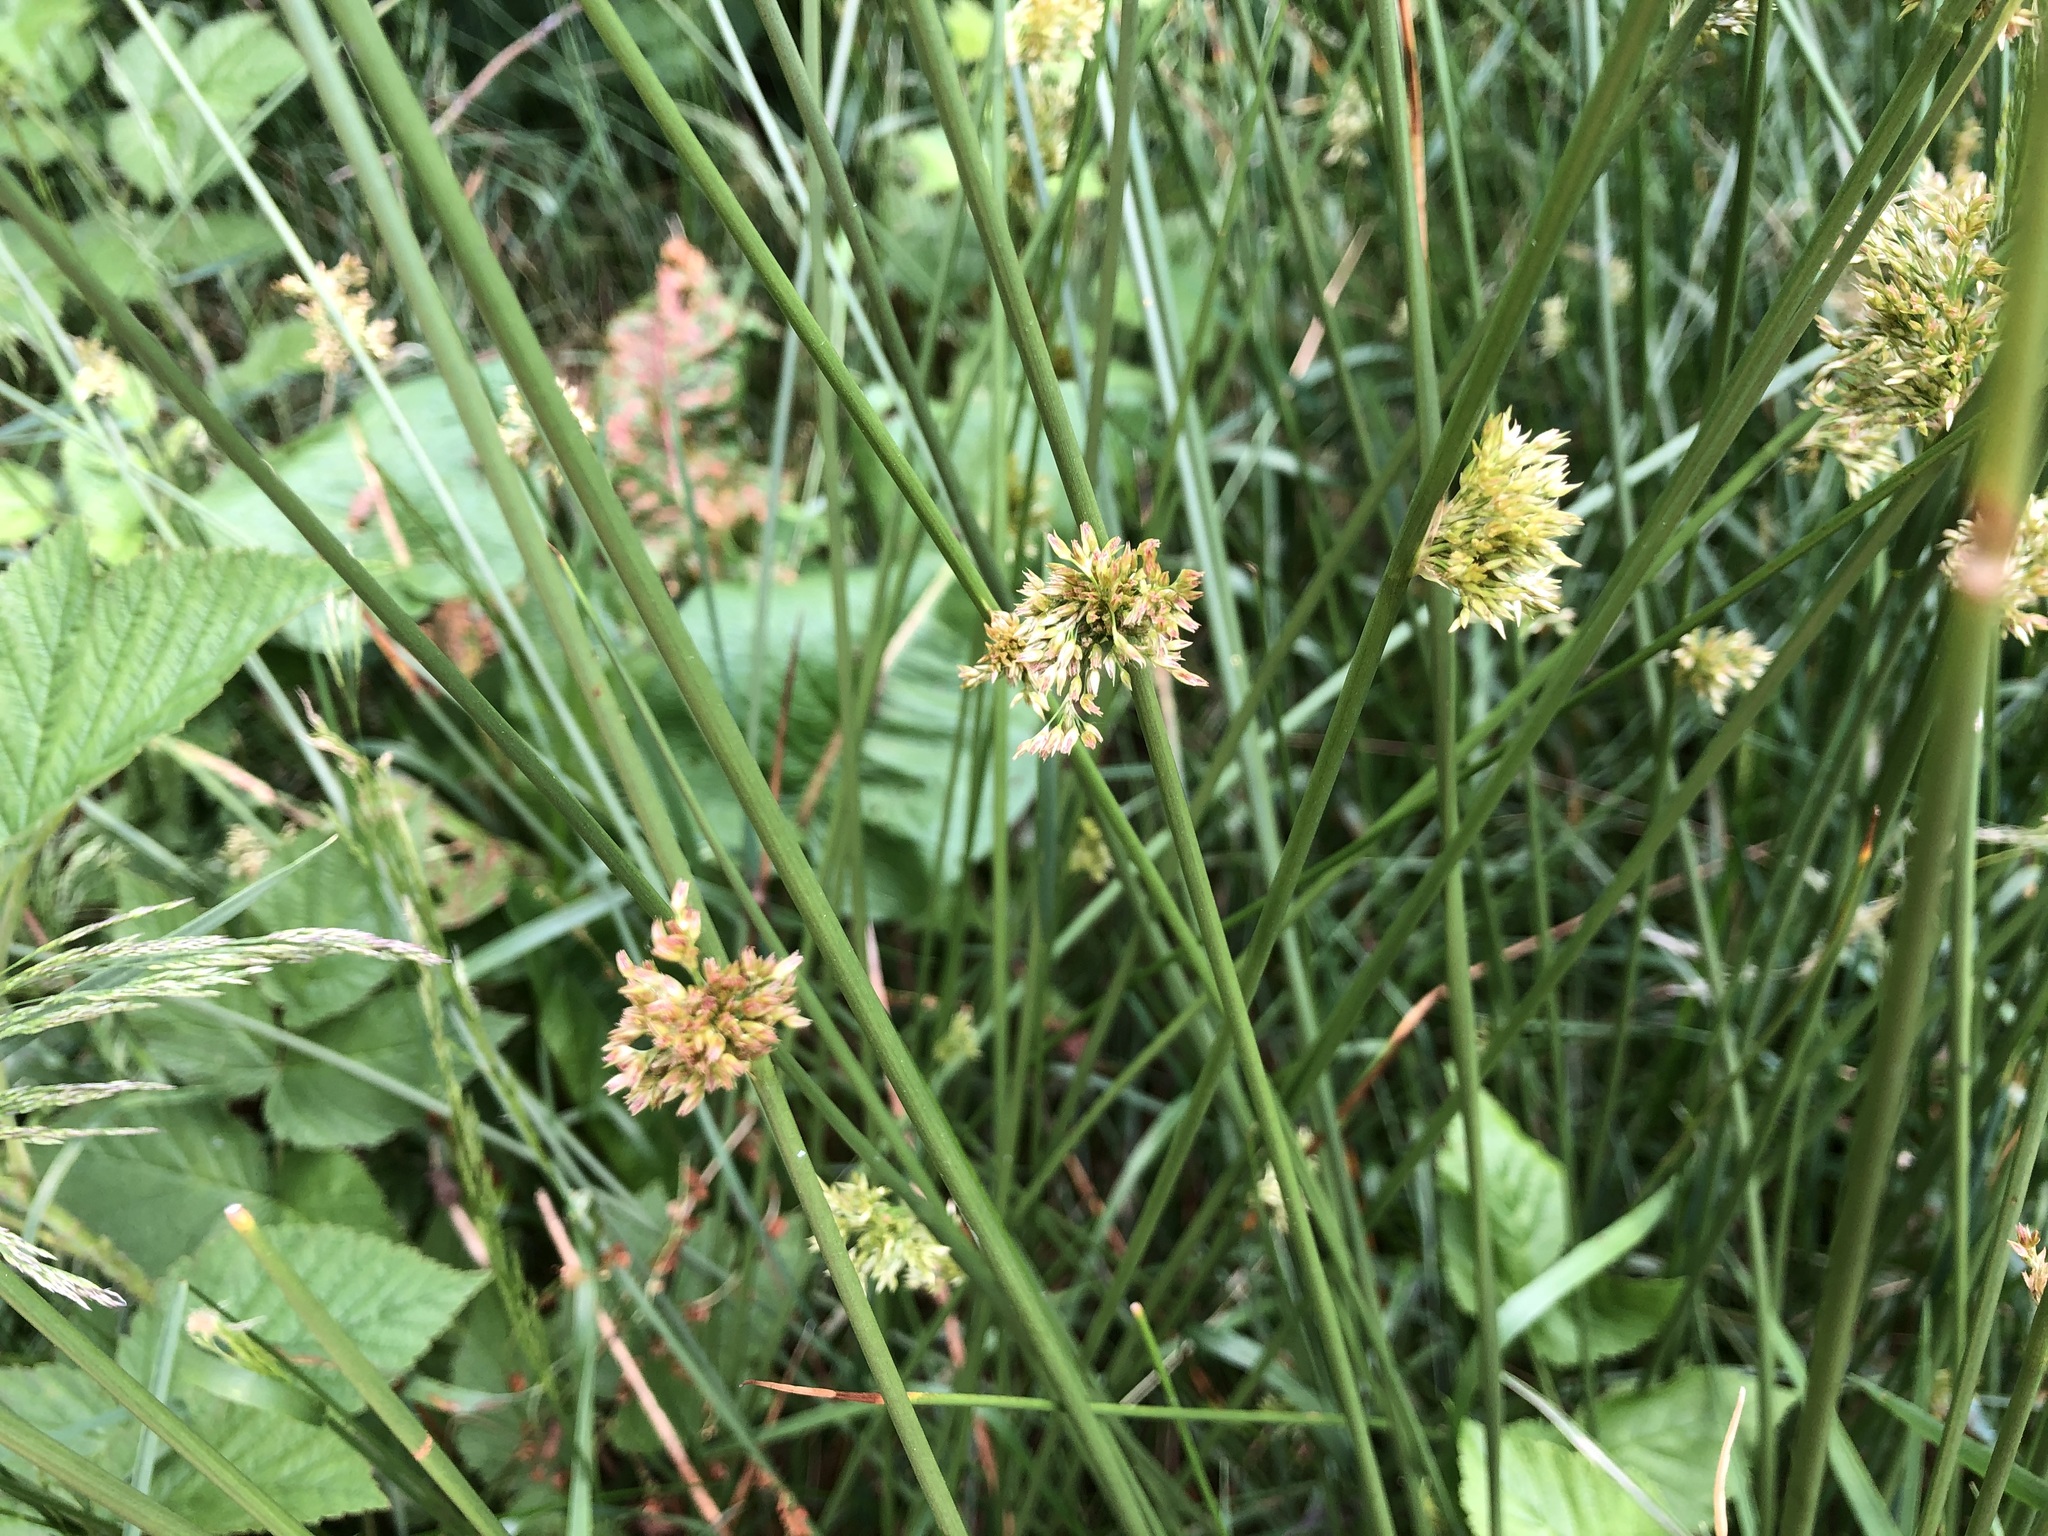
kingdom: Plantae
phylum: Tracheophyta
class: Liliopsida
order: Poales
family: Juncaceae
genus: Juncus
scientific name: Juncus effusus
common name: Soft rush
